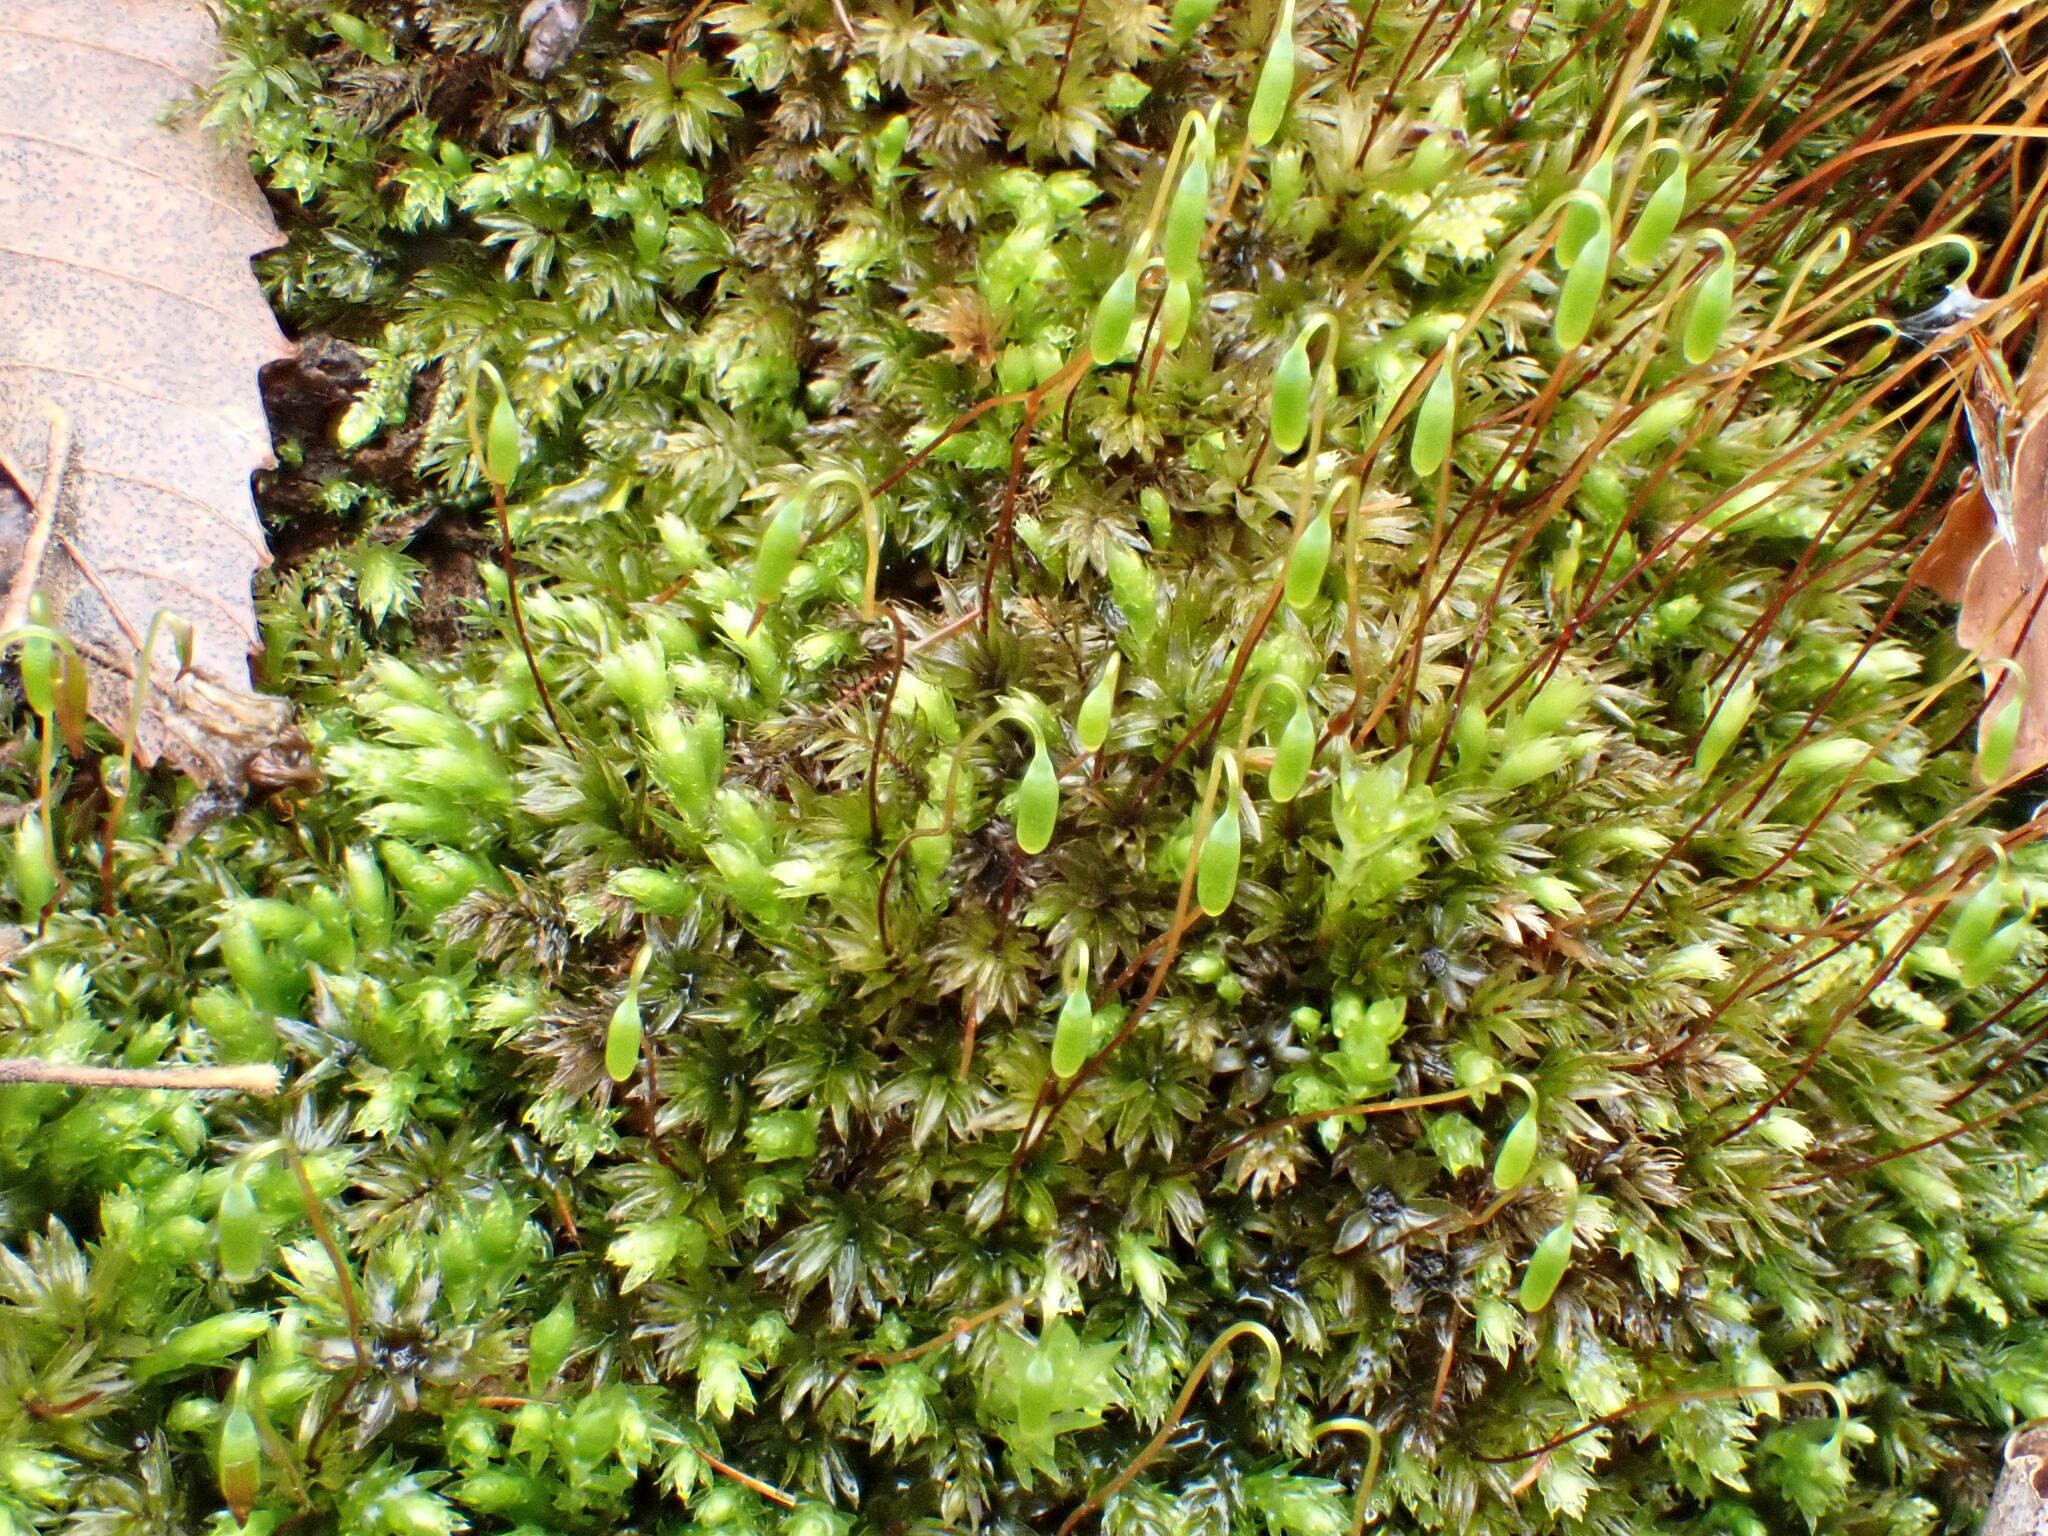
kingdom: Plantae
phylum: Bryophyta
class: Bryopsida
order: Bryales
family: Mniaceae
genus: Mnium
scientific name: Mnium hornum
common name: Swan's-neck leafy moss
